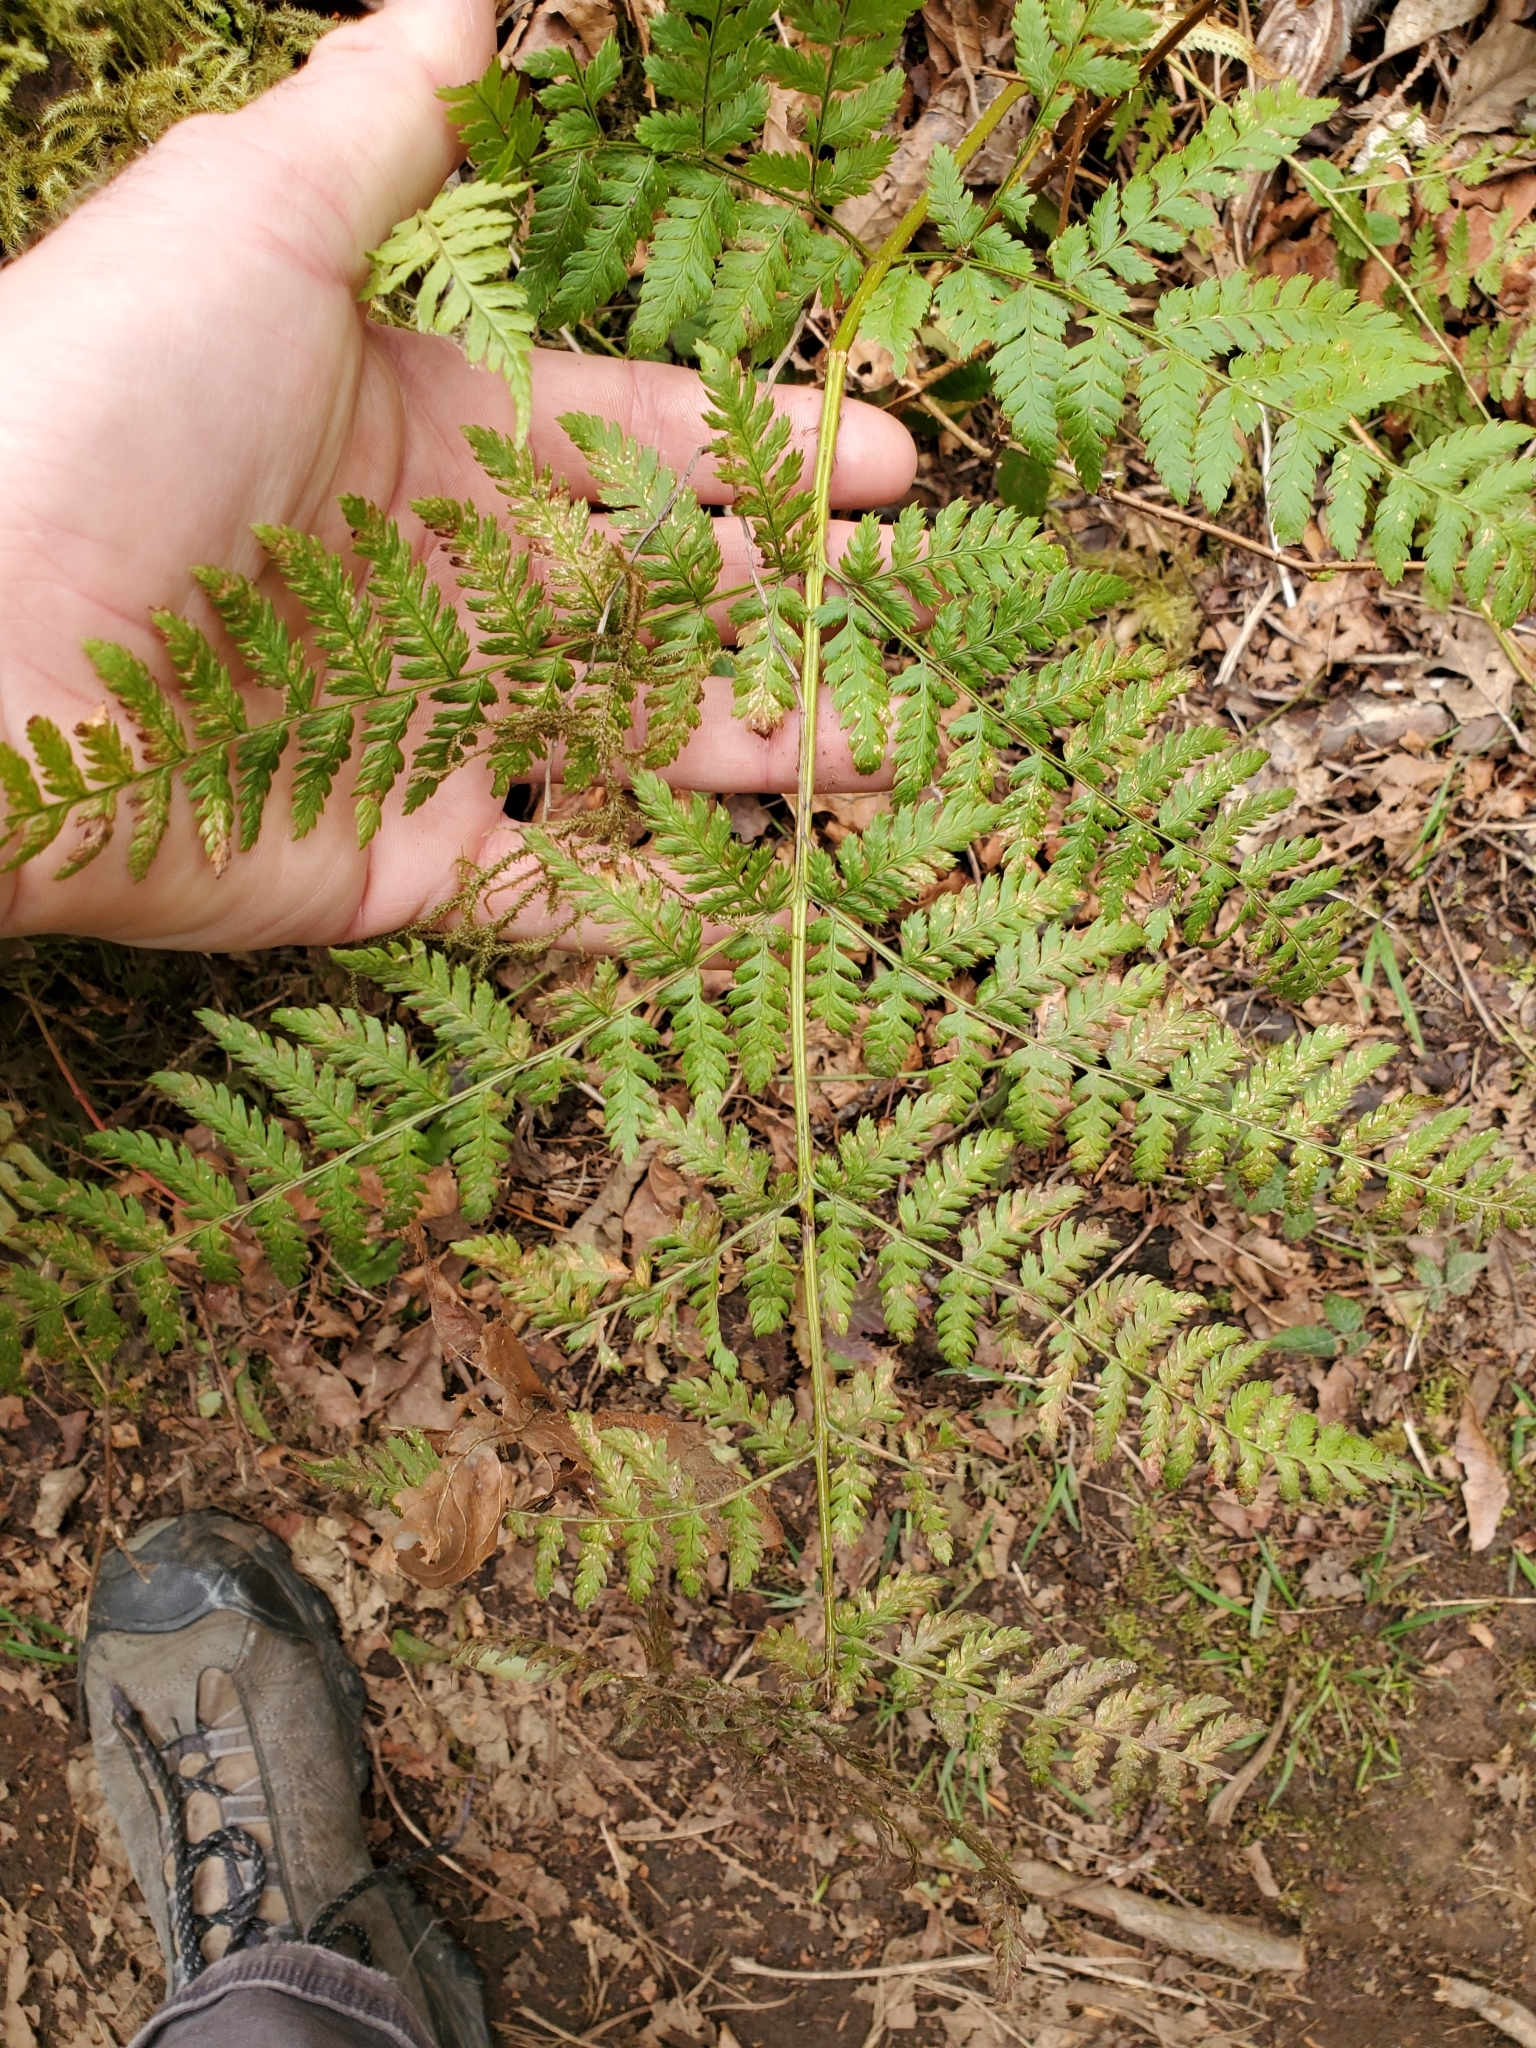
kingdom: Plantae
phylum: Tracheophyta
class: Polypodiopsida
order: Polypodiales
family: Dryopteridaceae
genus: Dryopteris
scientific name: Dryopteris expansa
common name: Northern buckler fern
